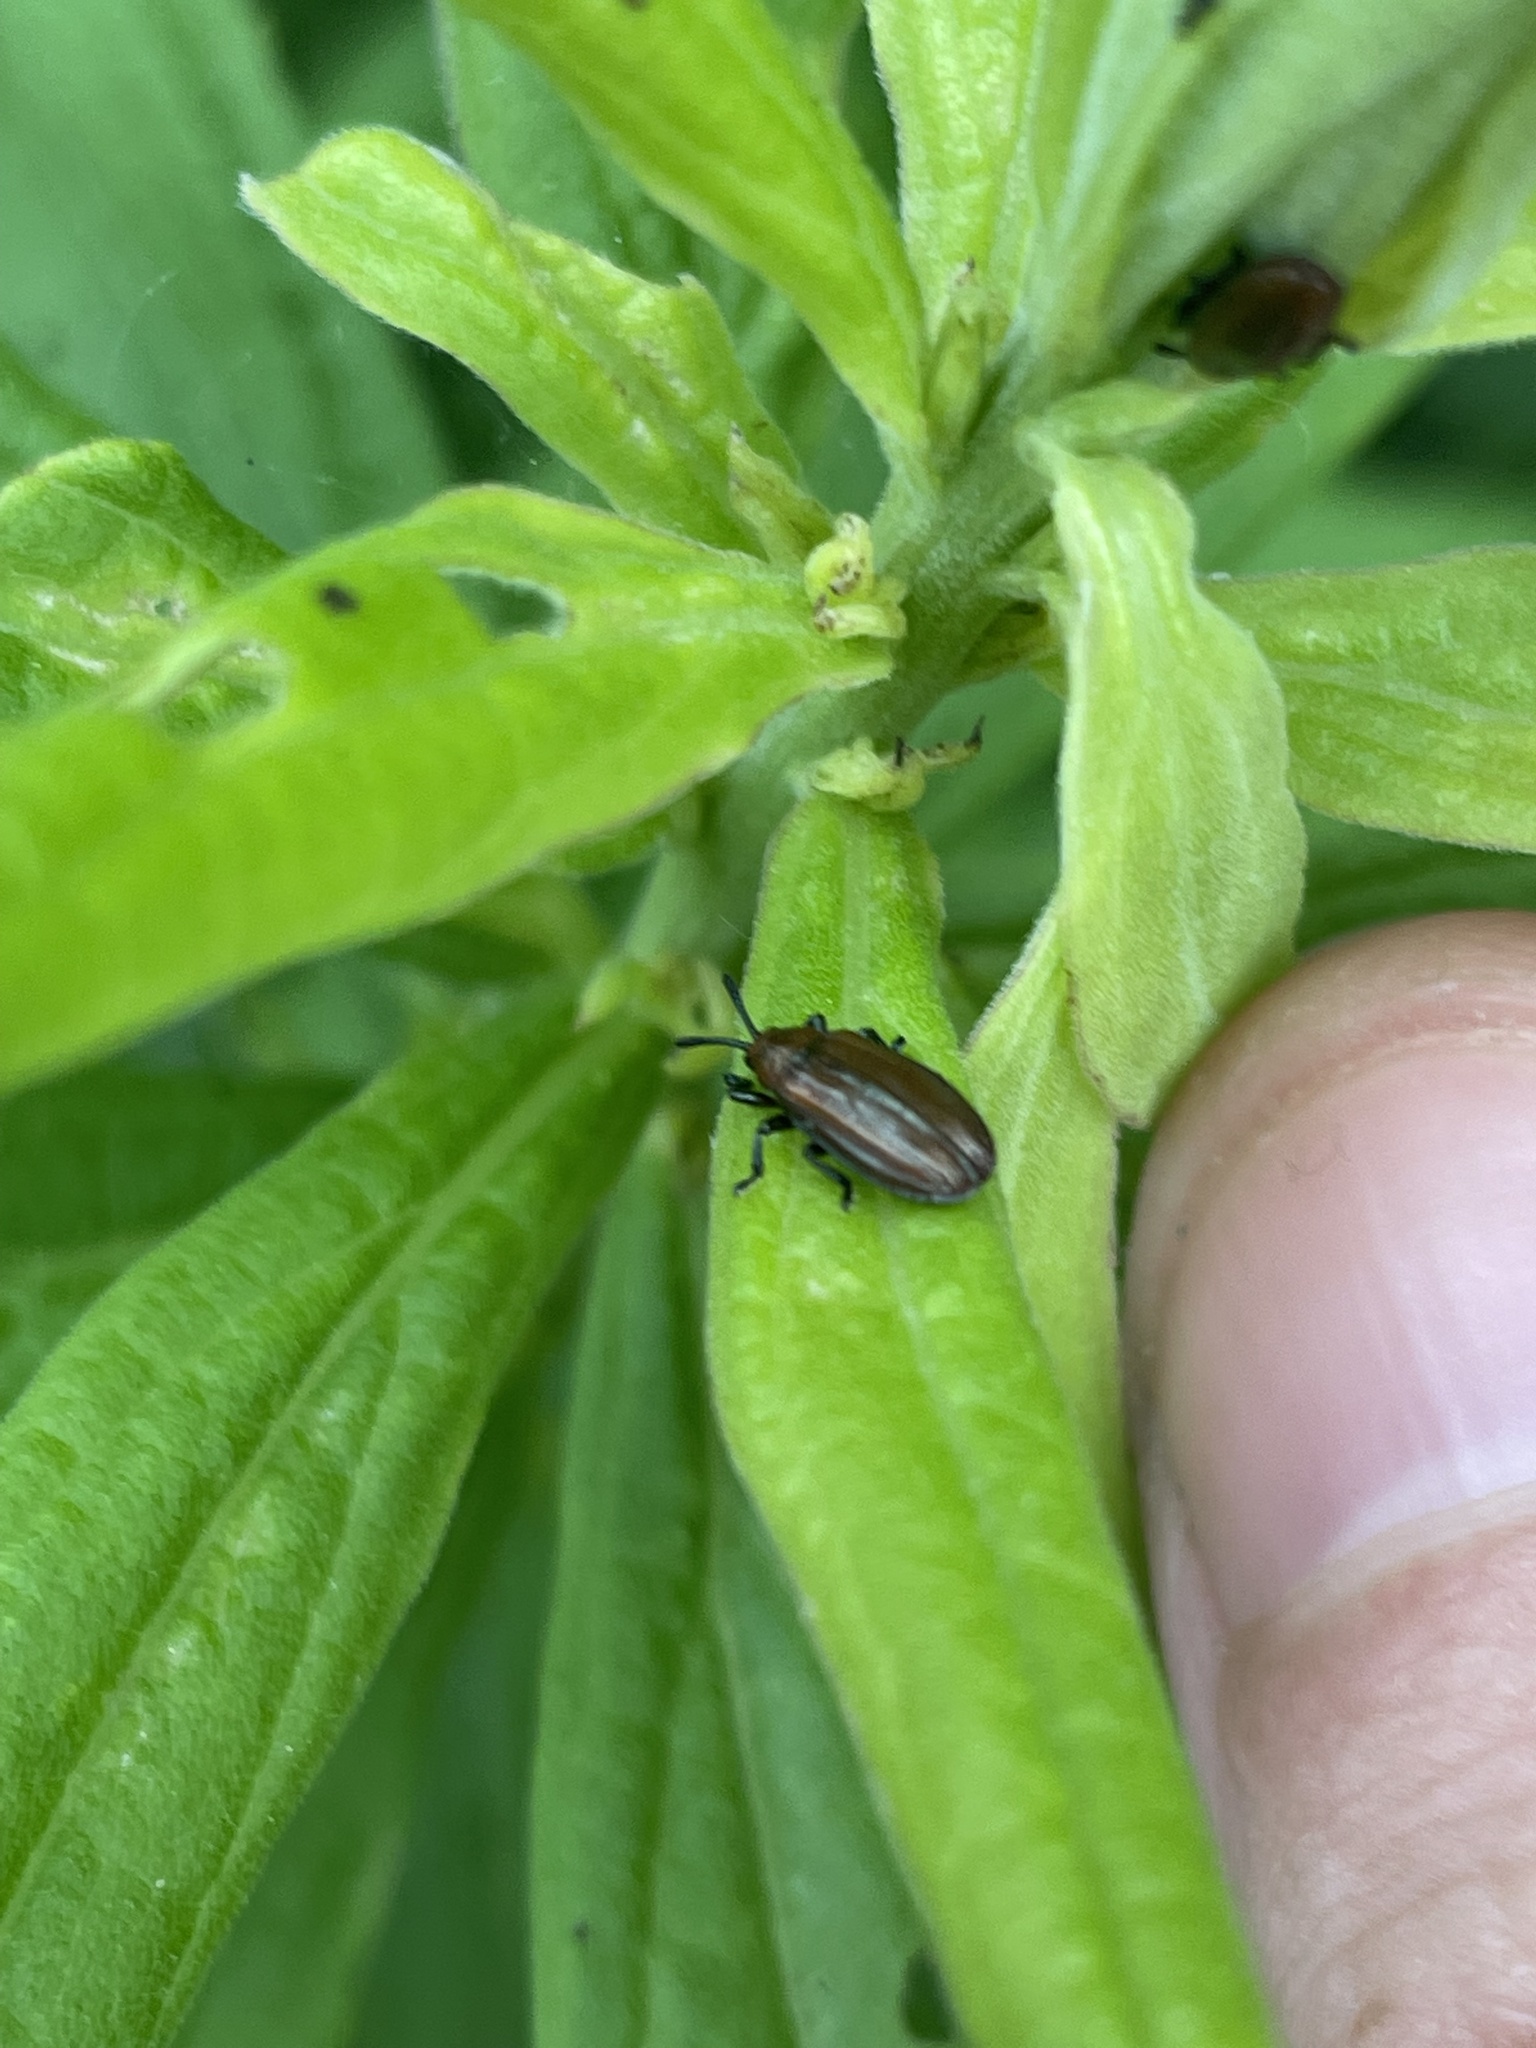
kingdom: Animalia
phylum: Arthropoda
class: Insecta
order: Coleoptera
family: Chrysomelidae
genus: Microrhopala
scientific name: Microrhopala vittata
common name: Goldenrod leaf miner beetle
